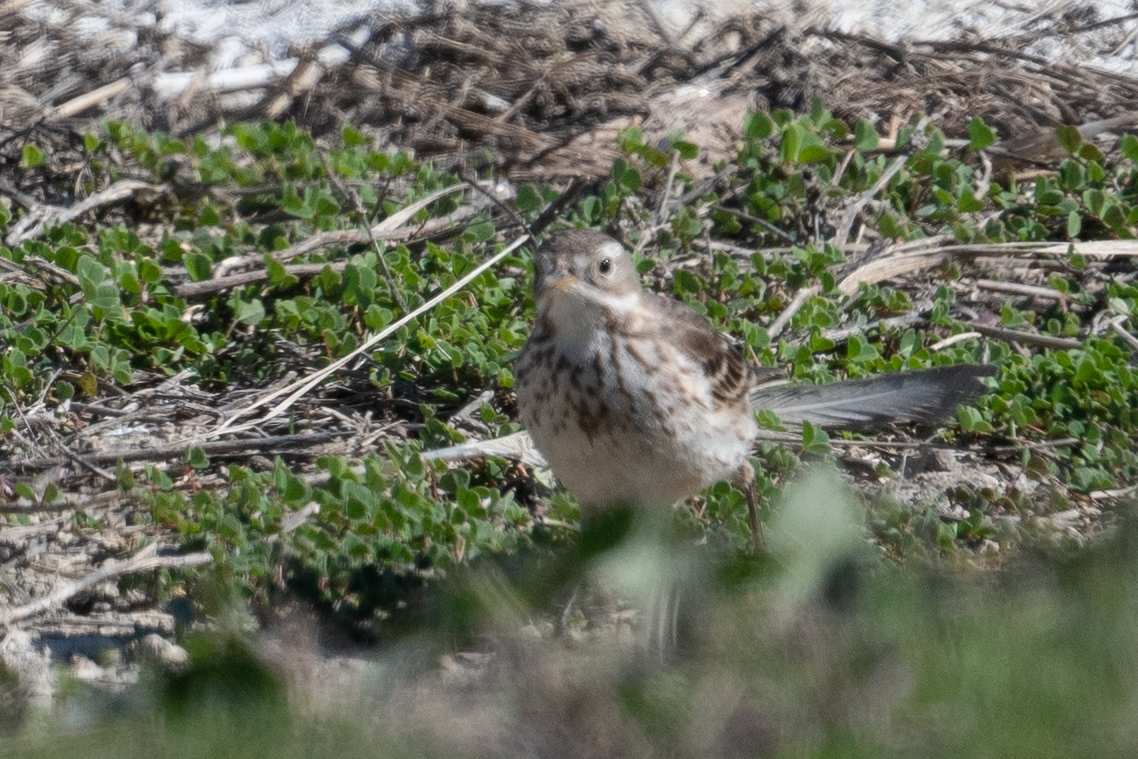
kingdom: Animalia
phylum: Chordata
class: Aves
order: Passeriformes
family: Motacillidae
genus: Anthus
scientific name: Anthus rubescens
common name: Buff-bellied pipit
